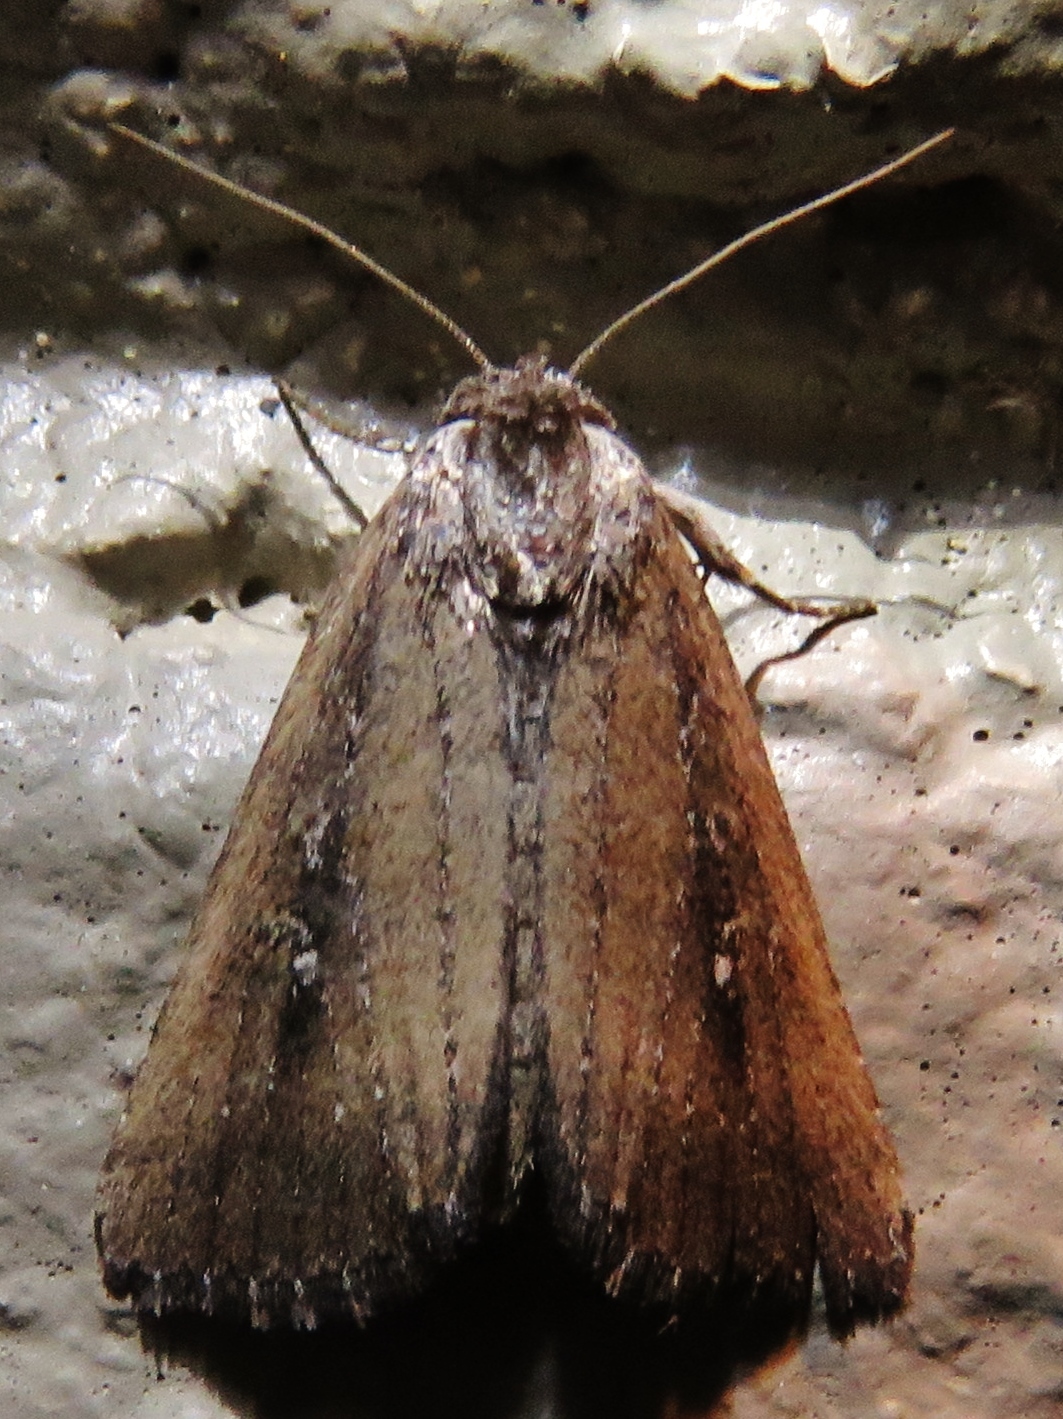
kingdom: Animalia
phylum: Arthropoda
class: Insecta
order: Lepidoptera
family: Noctuidae
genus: Condica
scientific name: Condica videns
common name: White-dotted groundling
